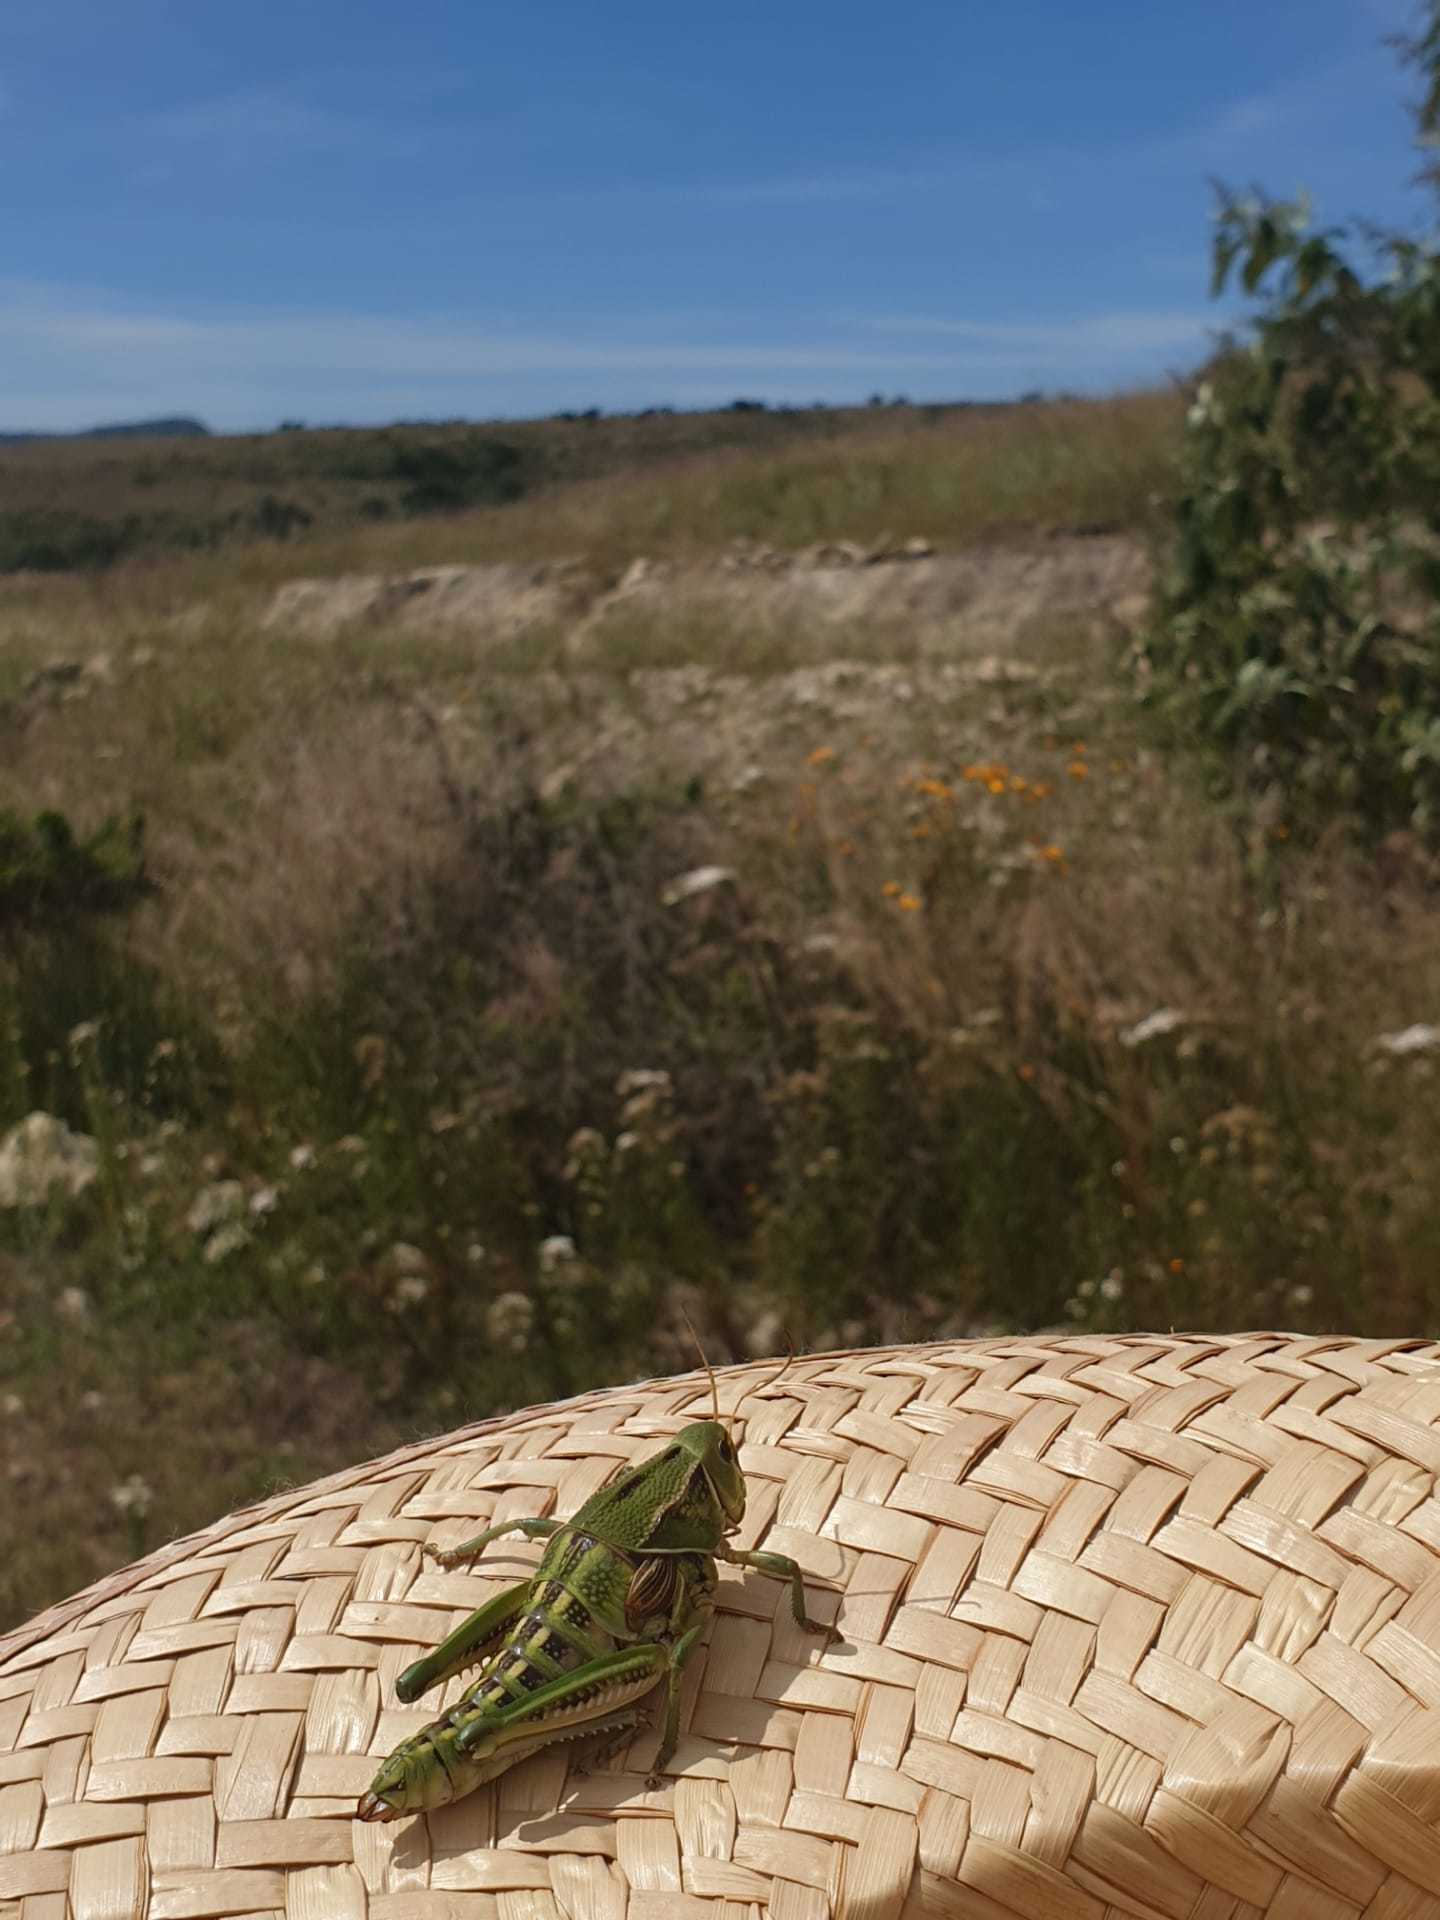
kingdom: Animalia
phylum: Arthropoda
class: Insecta
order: Orthoptera
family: Romaleidae
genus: Brachystola
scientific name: Brachystola mexicana
